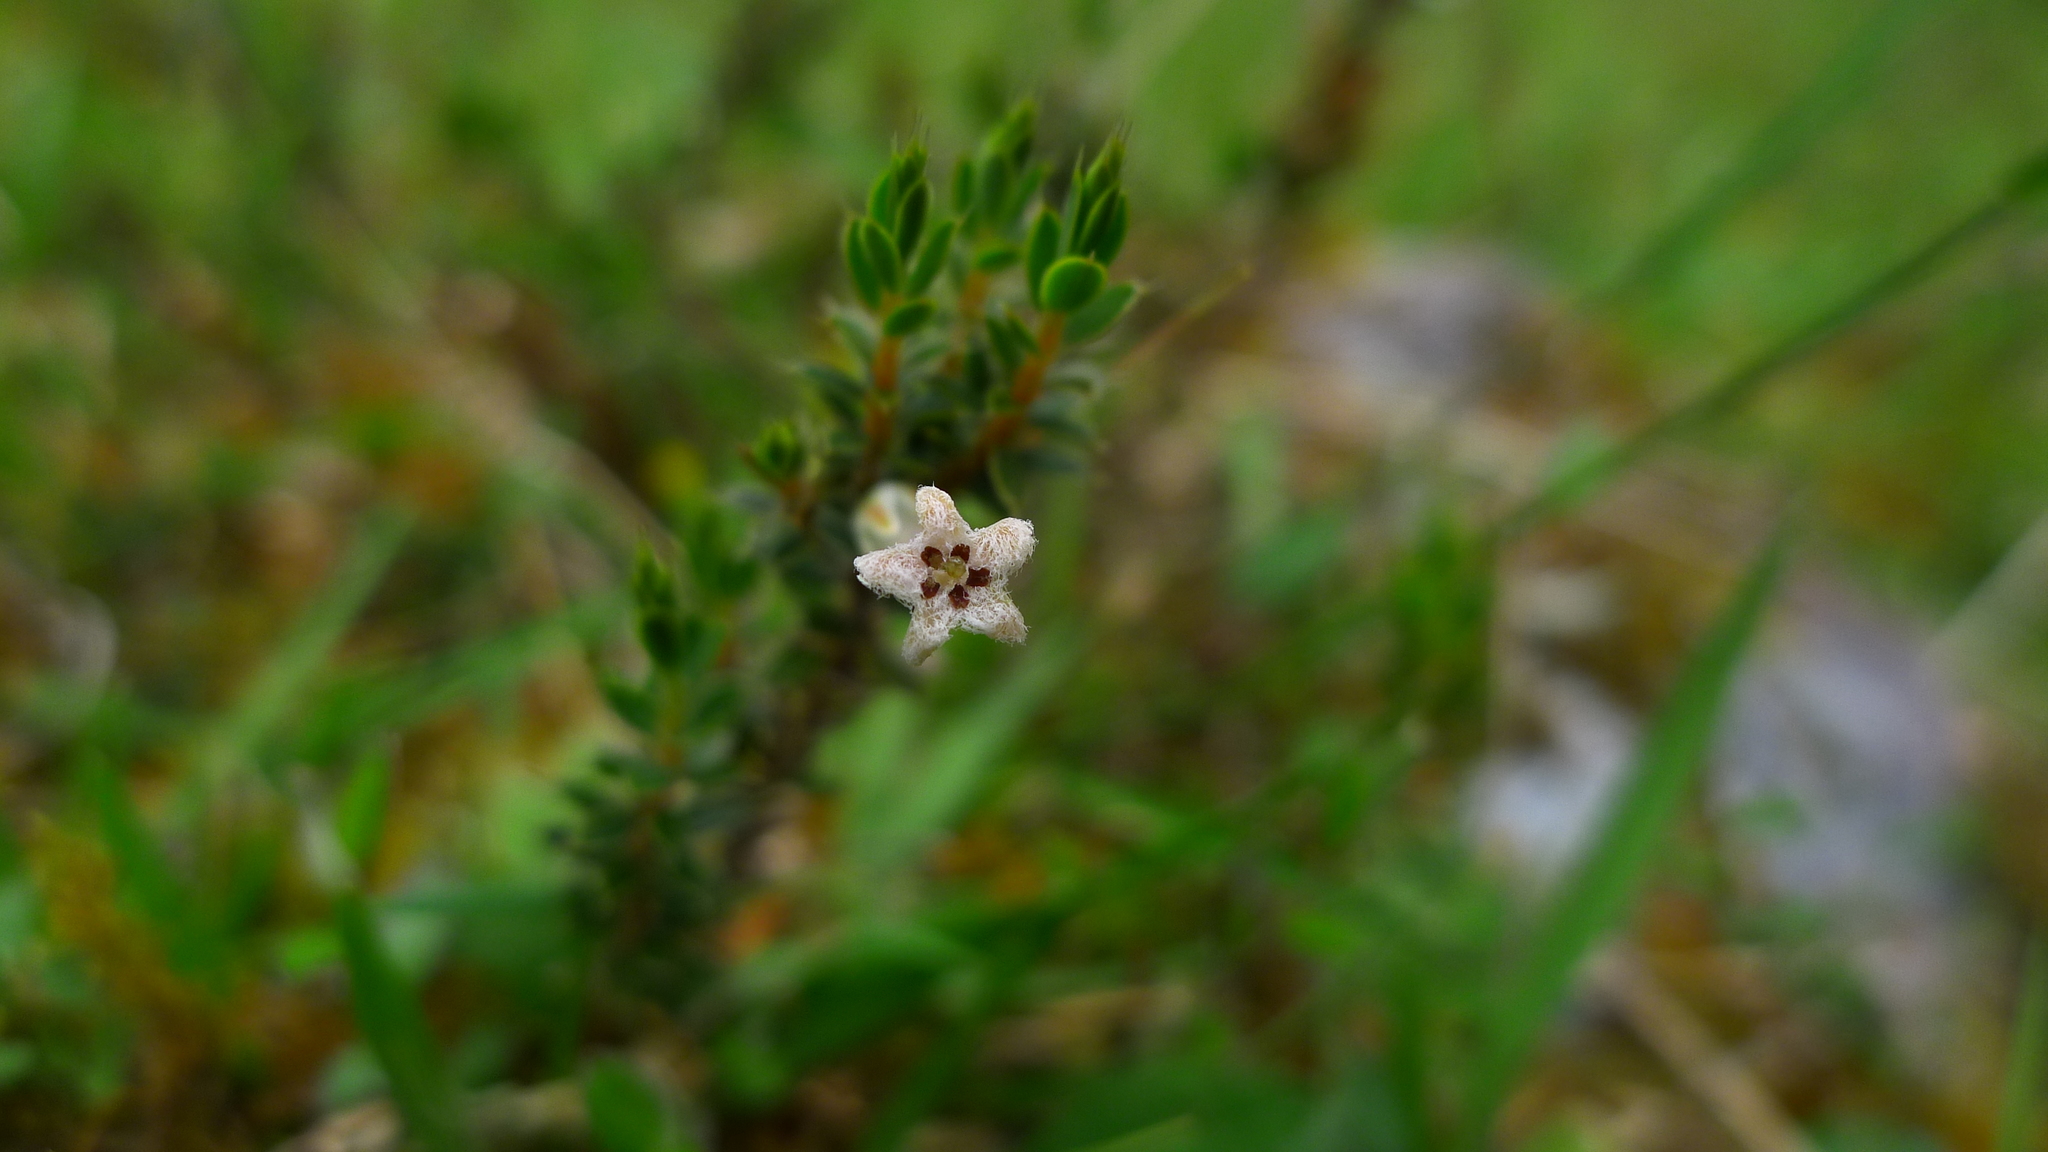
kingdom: Plantae
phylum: Tracheophyta
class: Magnoliopsida
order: Ericales
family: Ericaceae
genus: Styphelia
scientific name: Styphelia nesophila
